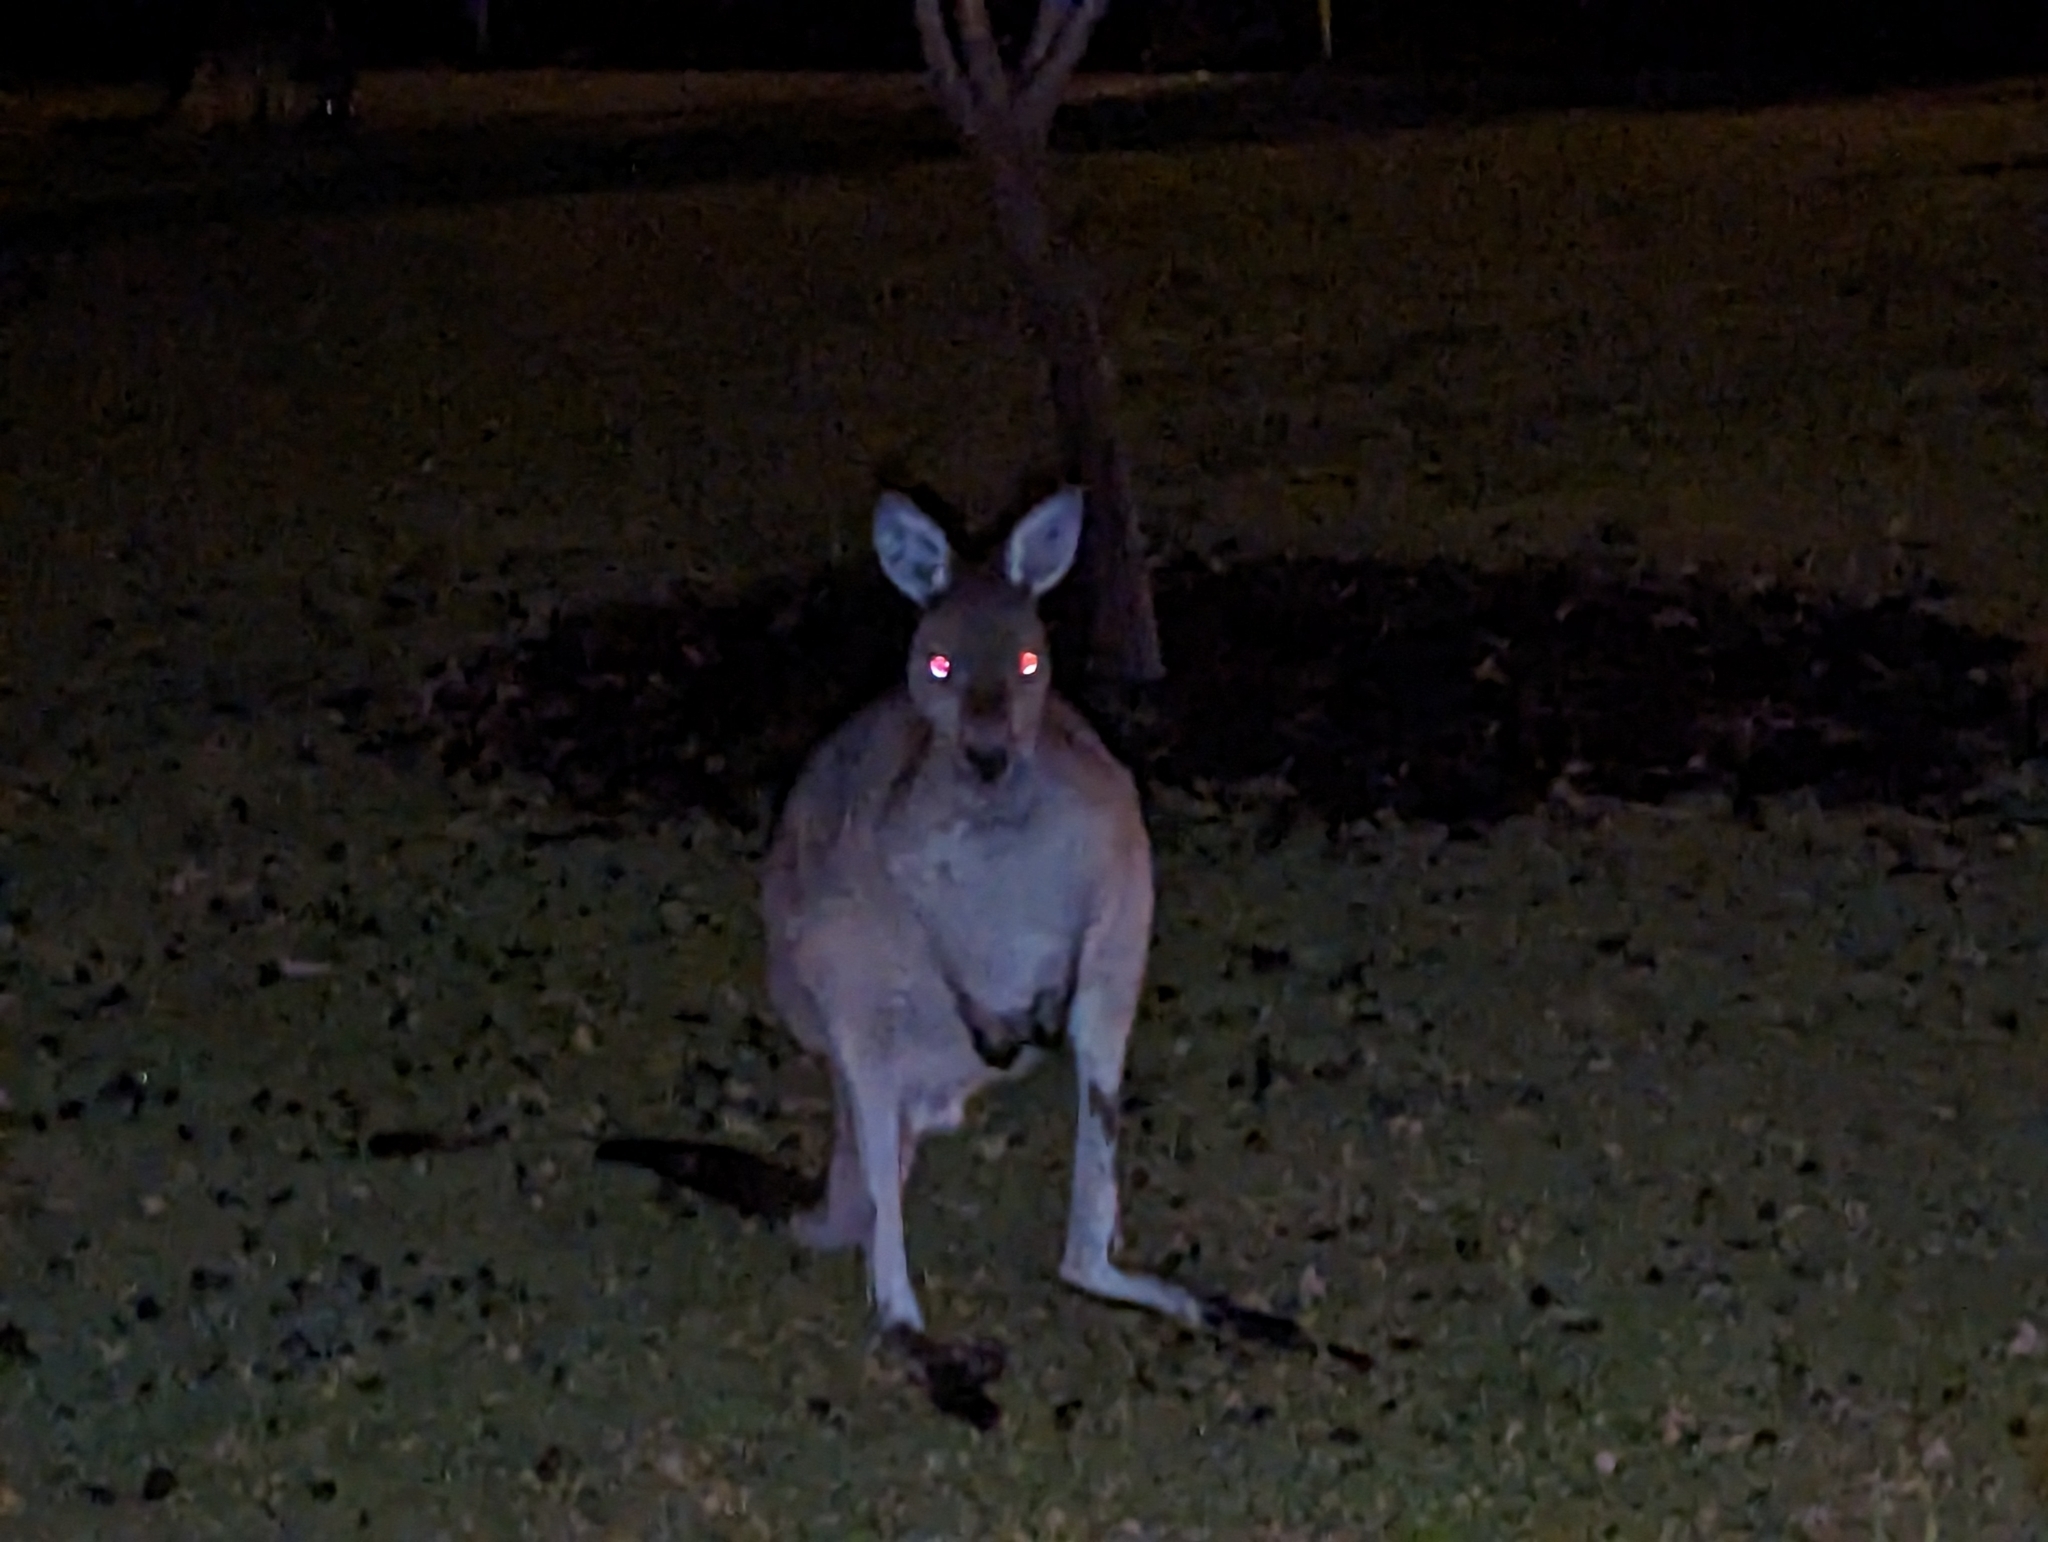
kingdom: Animalia
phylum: Chordata
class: Mammalia
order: Diprotodontia
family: Macropodidae
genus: Macropus
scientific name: Macropus fuliginosus
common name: Western grey kangaroo
